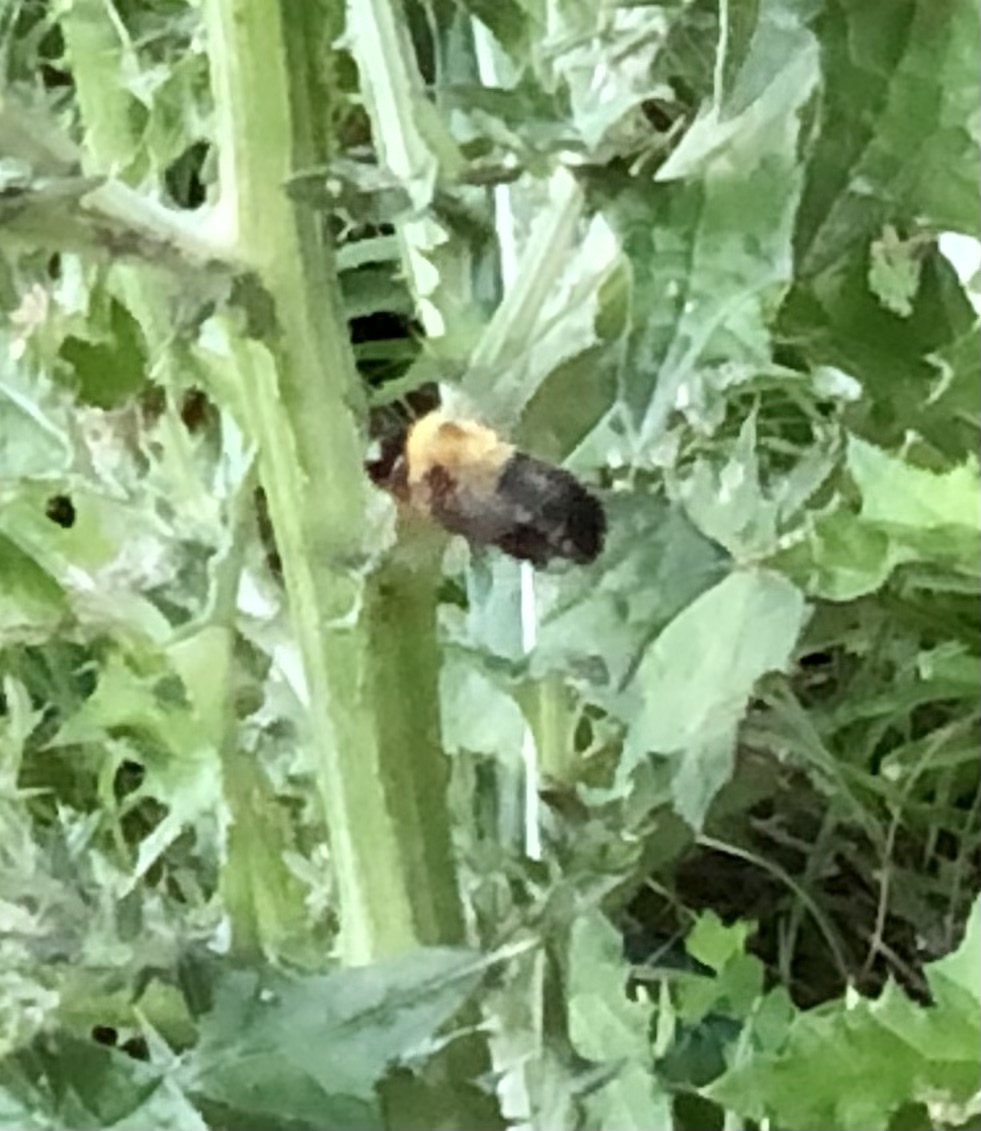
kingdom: Animalia
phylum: Arthropoda
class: Insecta
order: Hymenoptera
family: Apidae
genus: Xylocopa
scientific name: Xylocopa virginica
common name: Carpenter bee
